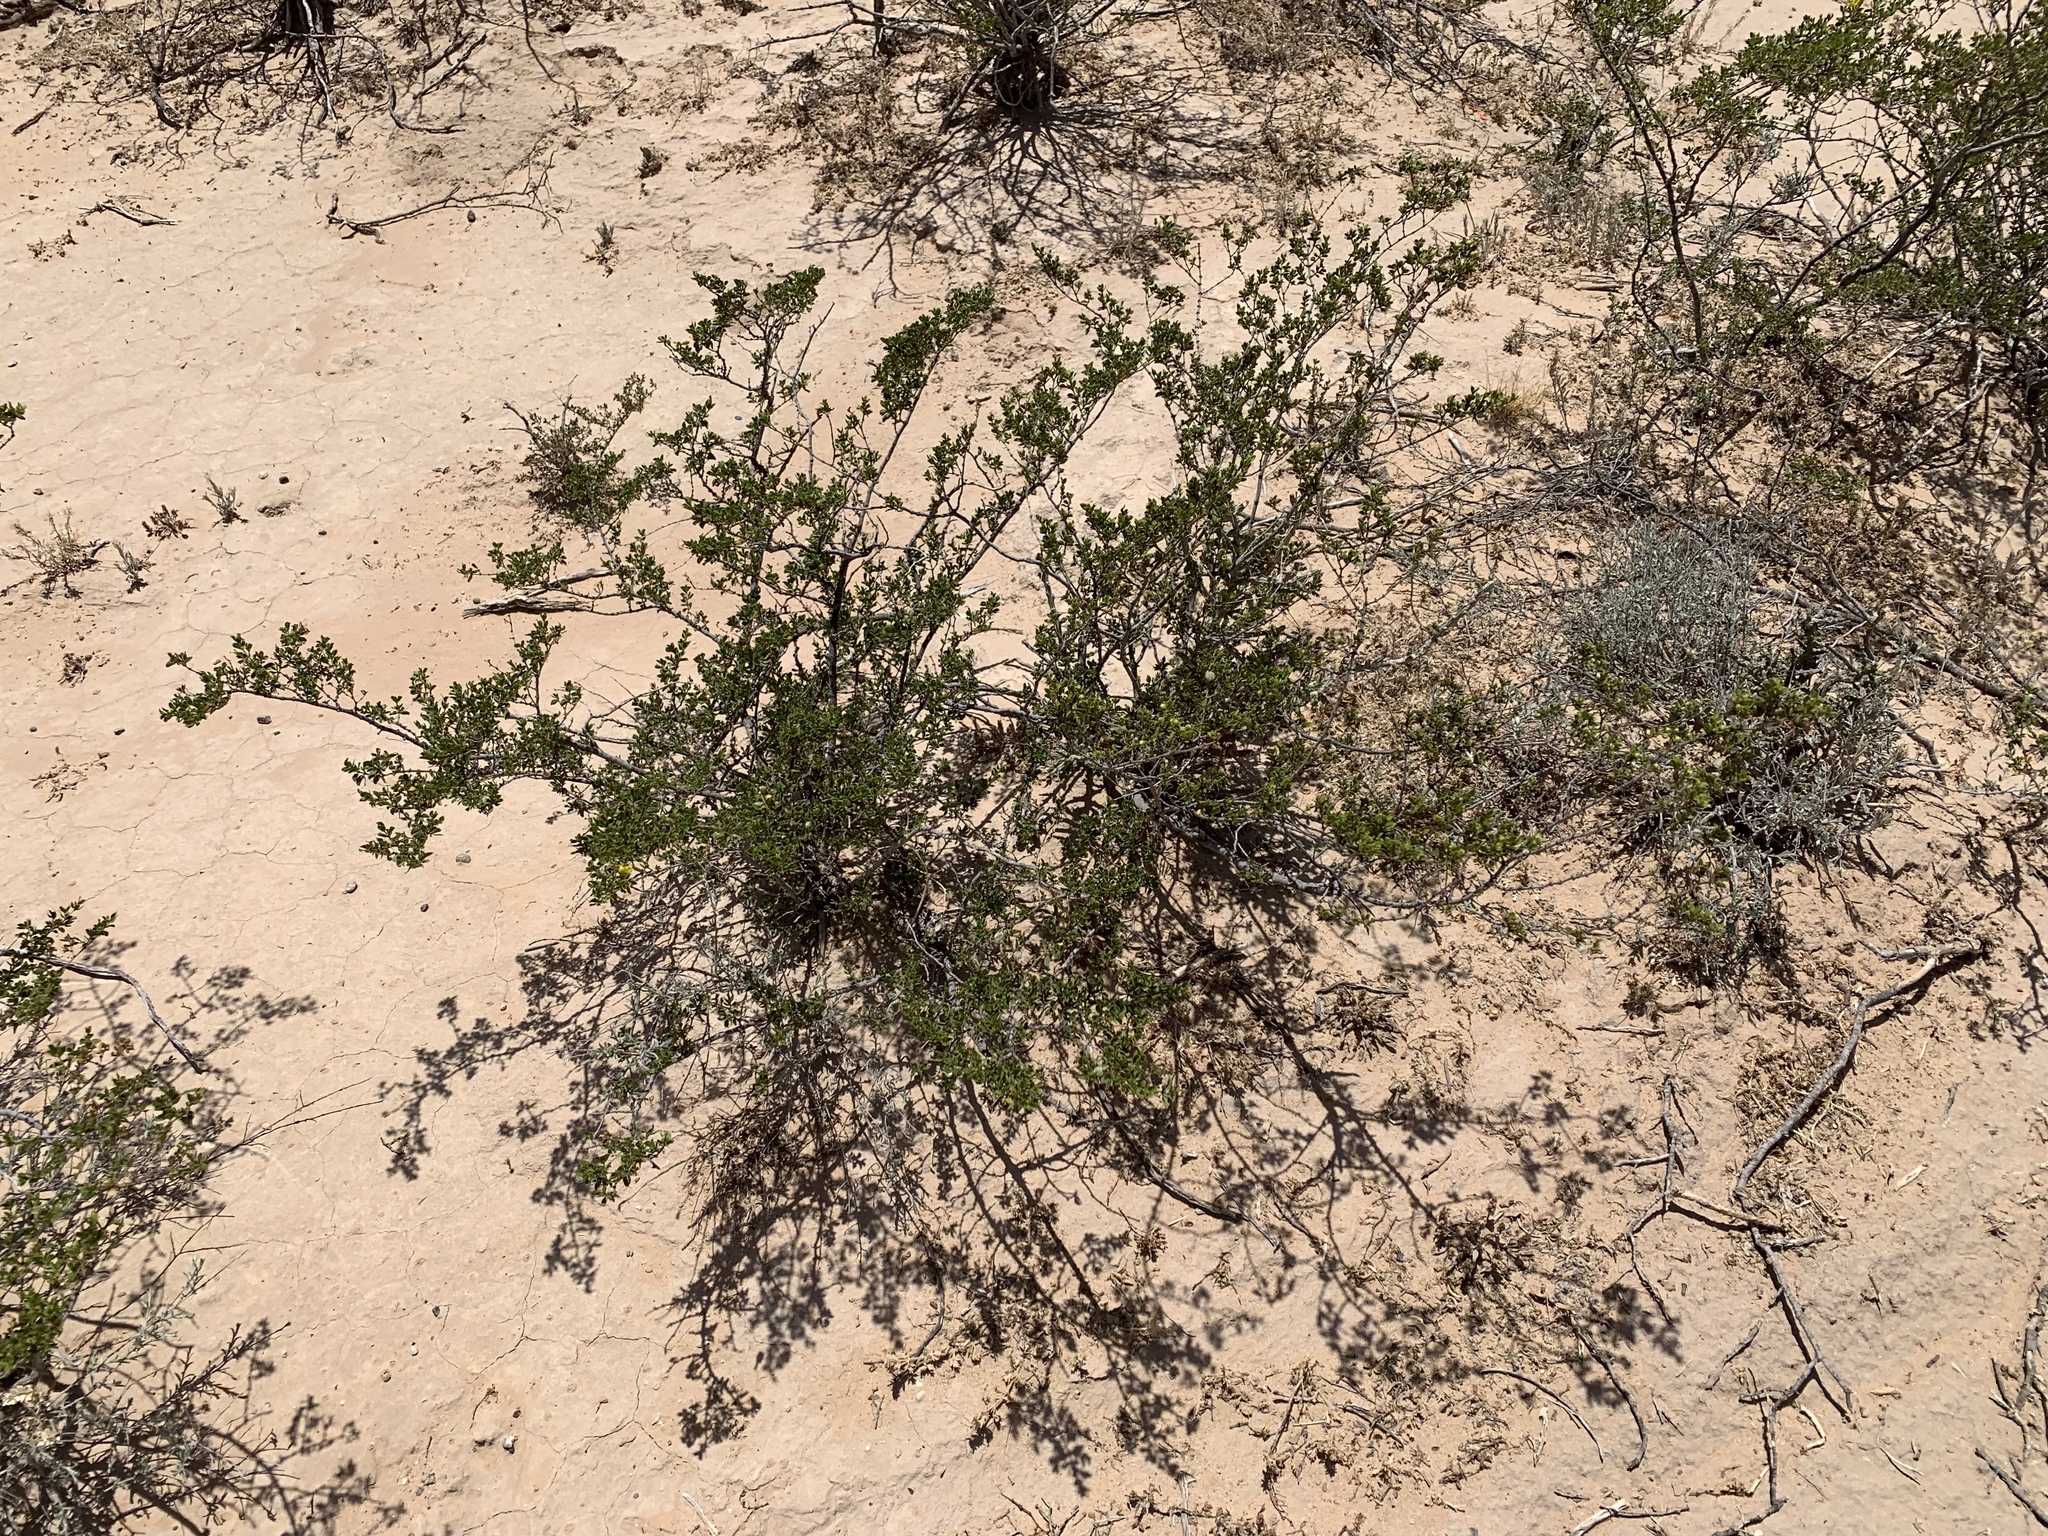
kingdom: Plantae
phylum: Tracheophyta
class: Magnoliopsida
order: Zygophyllales
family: Zygophyllaceae
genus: Larrea
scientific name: Larrea tridentata
